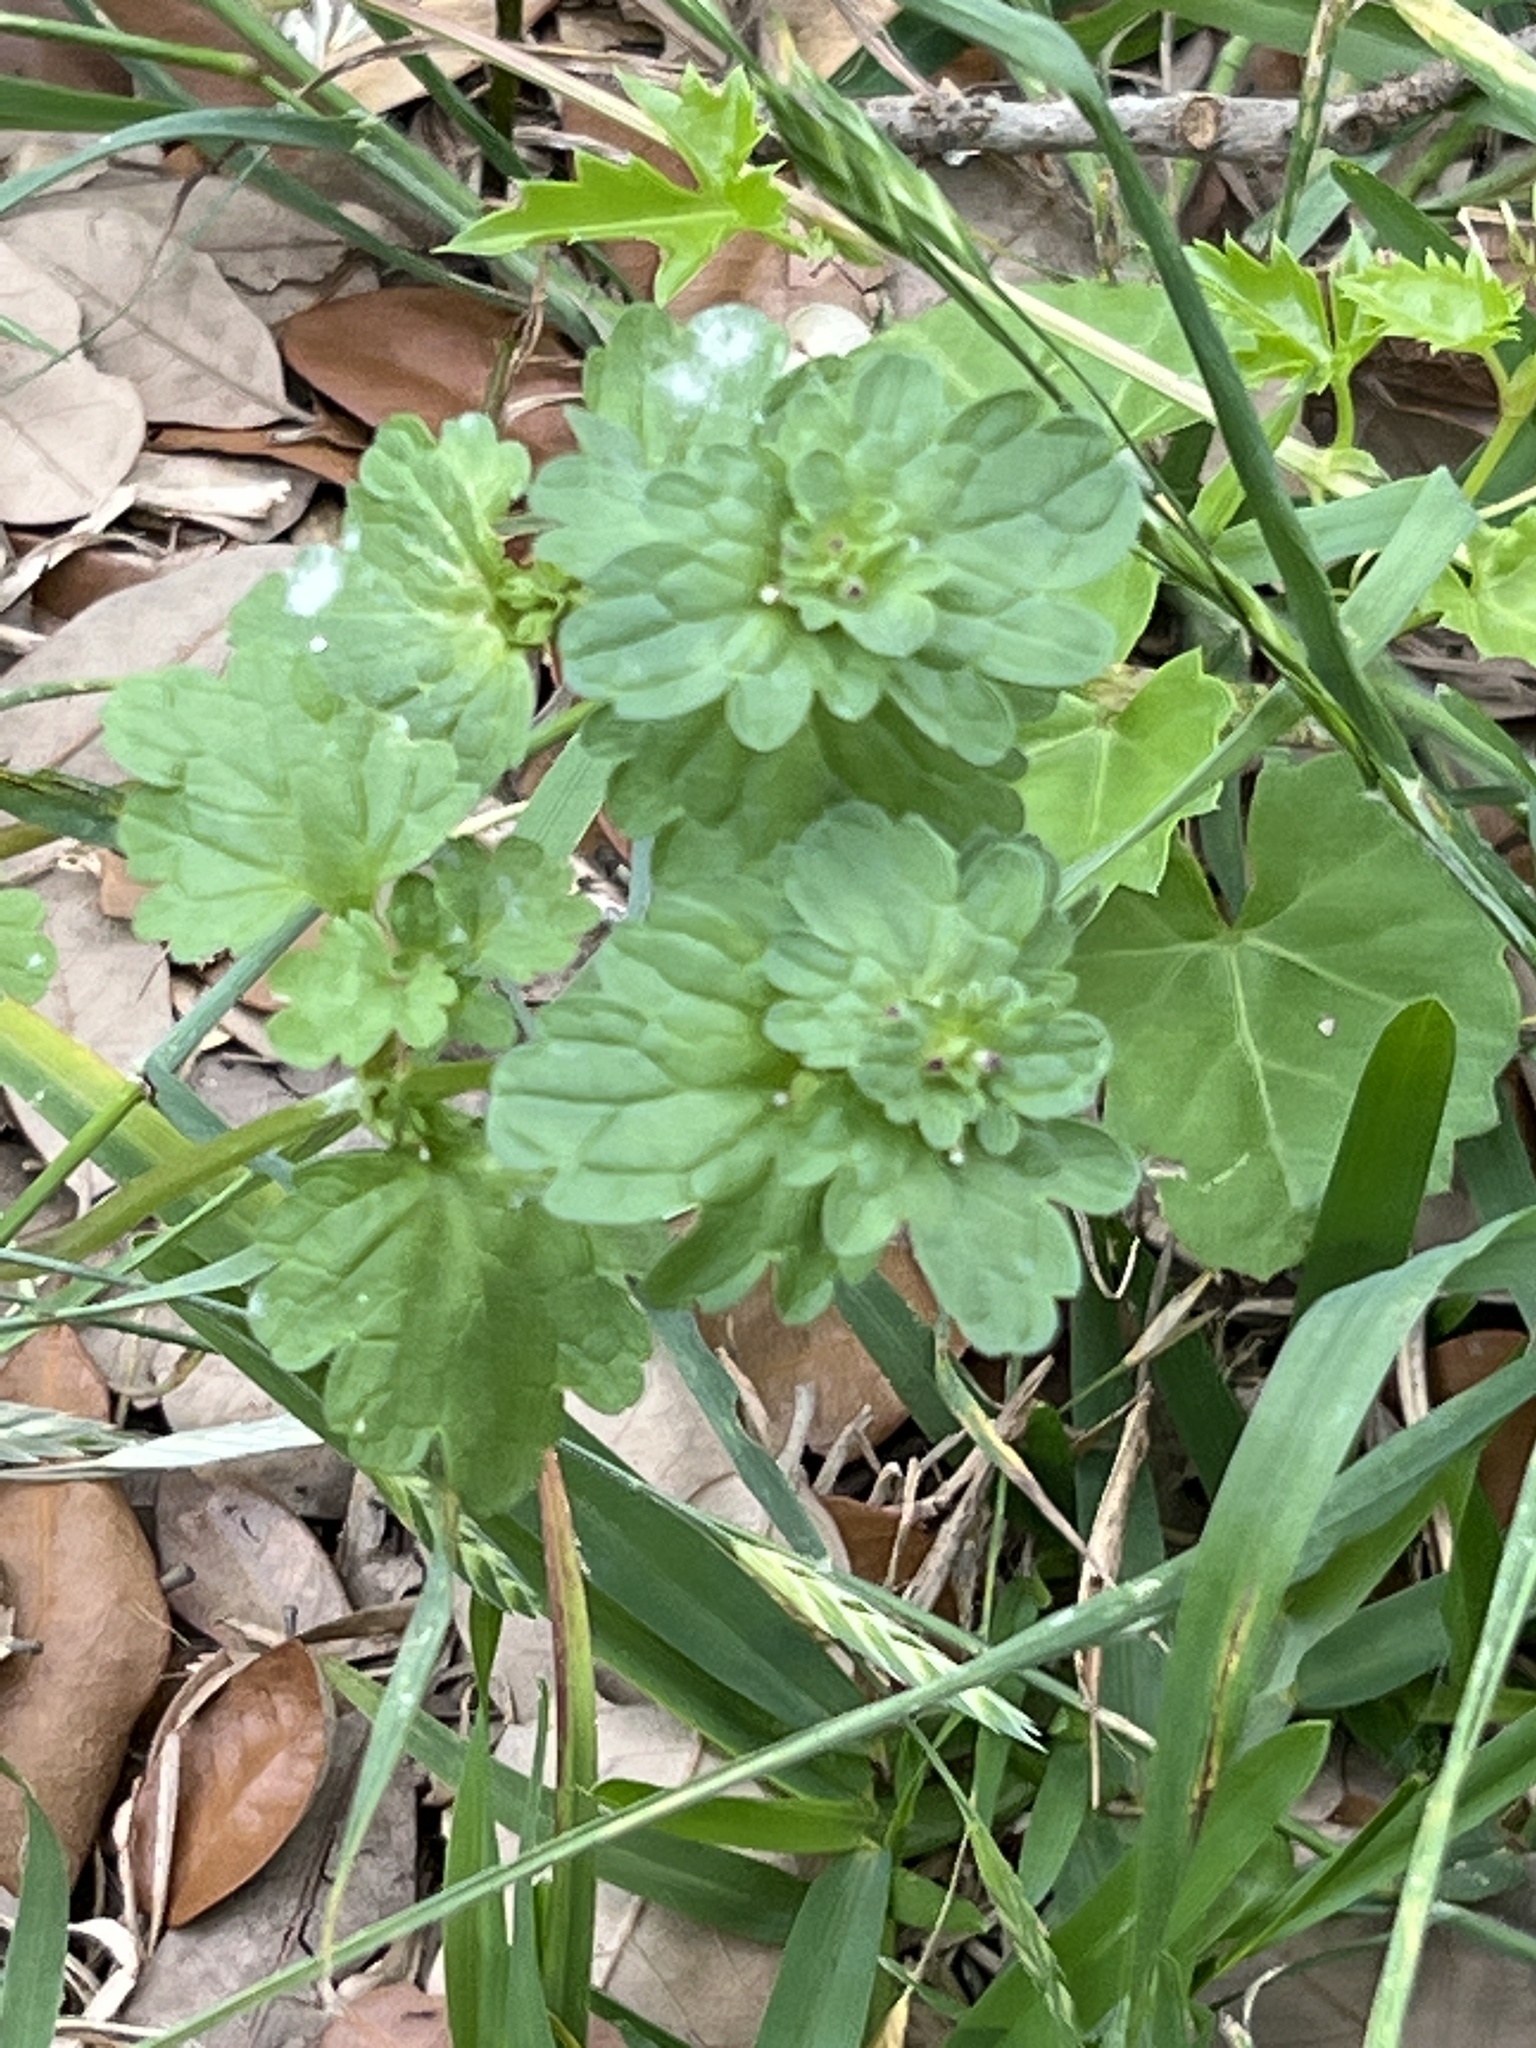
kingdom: Plantae
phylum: Tracheophyta
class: Magnoliopsida
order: Lamiales
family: Lamiaceae
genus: Lamium
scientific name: Lamium amplexicaule
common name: Henbit dead-nettle
